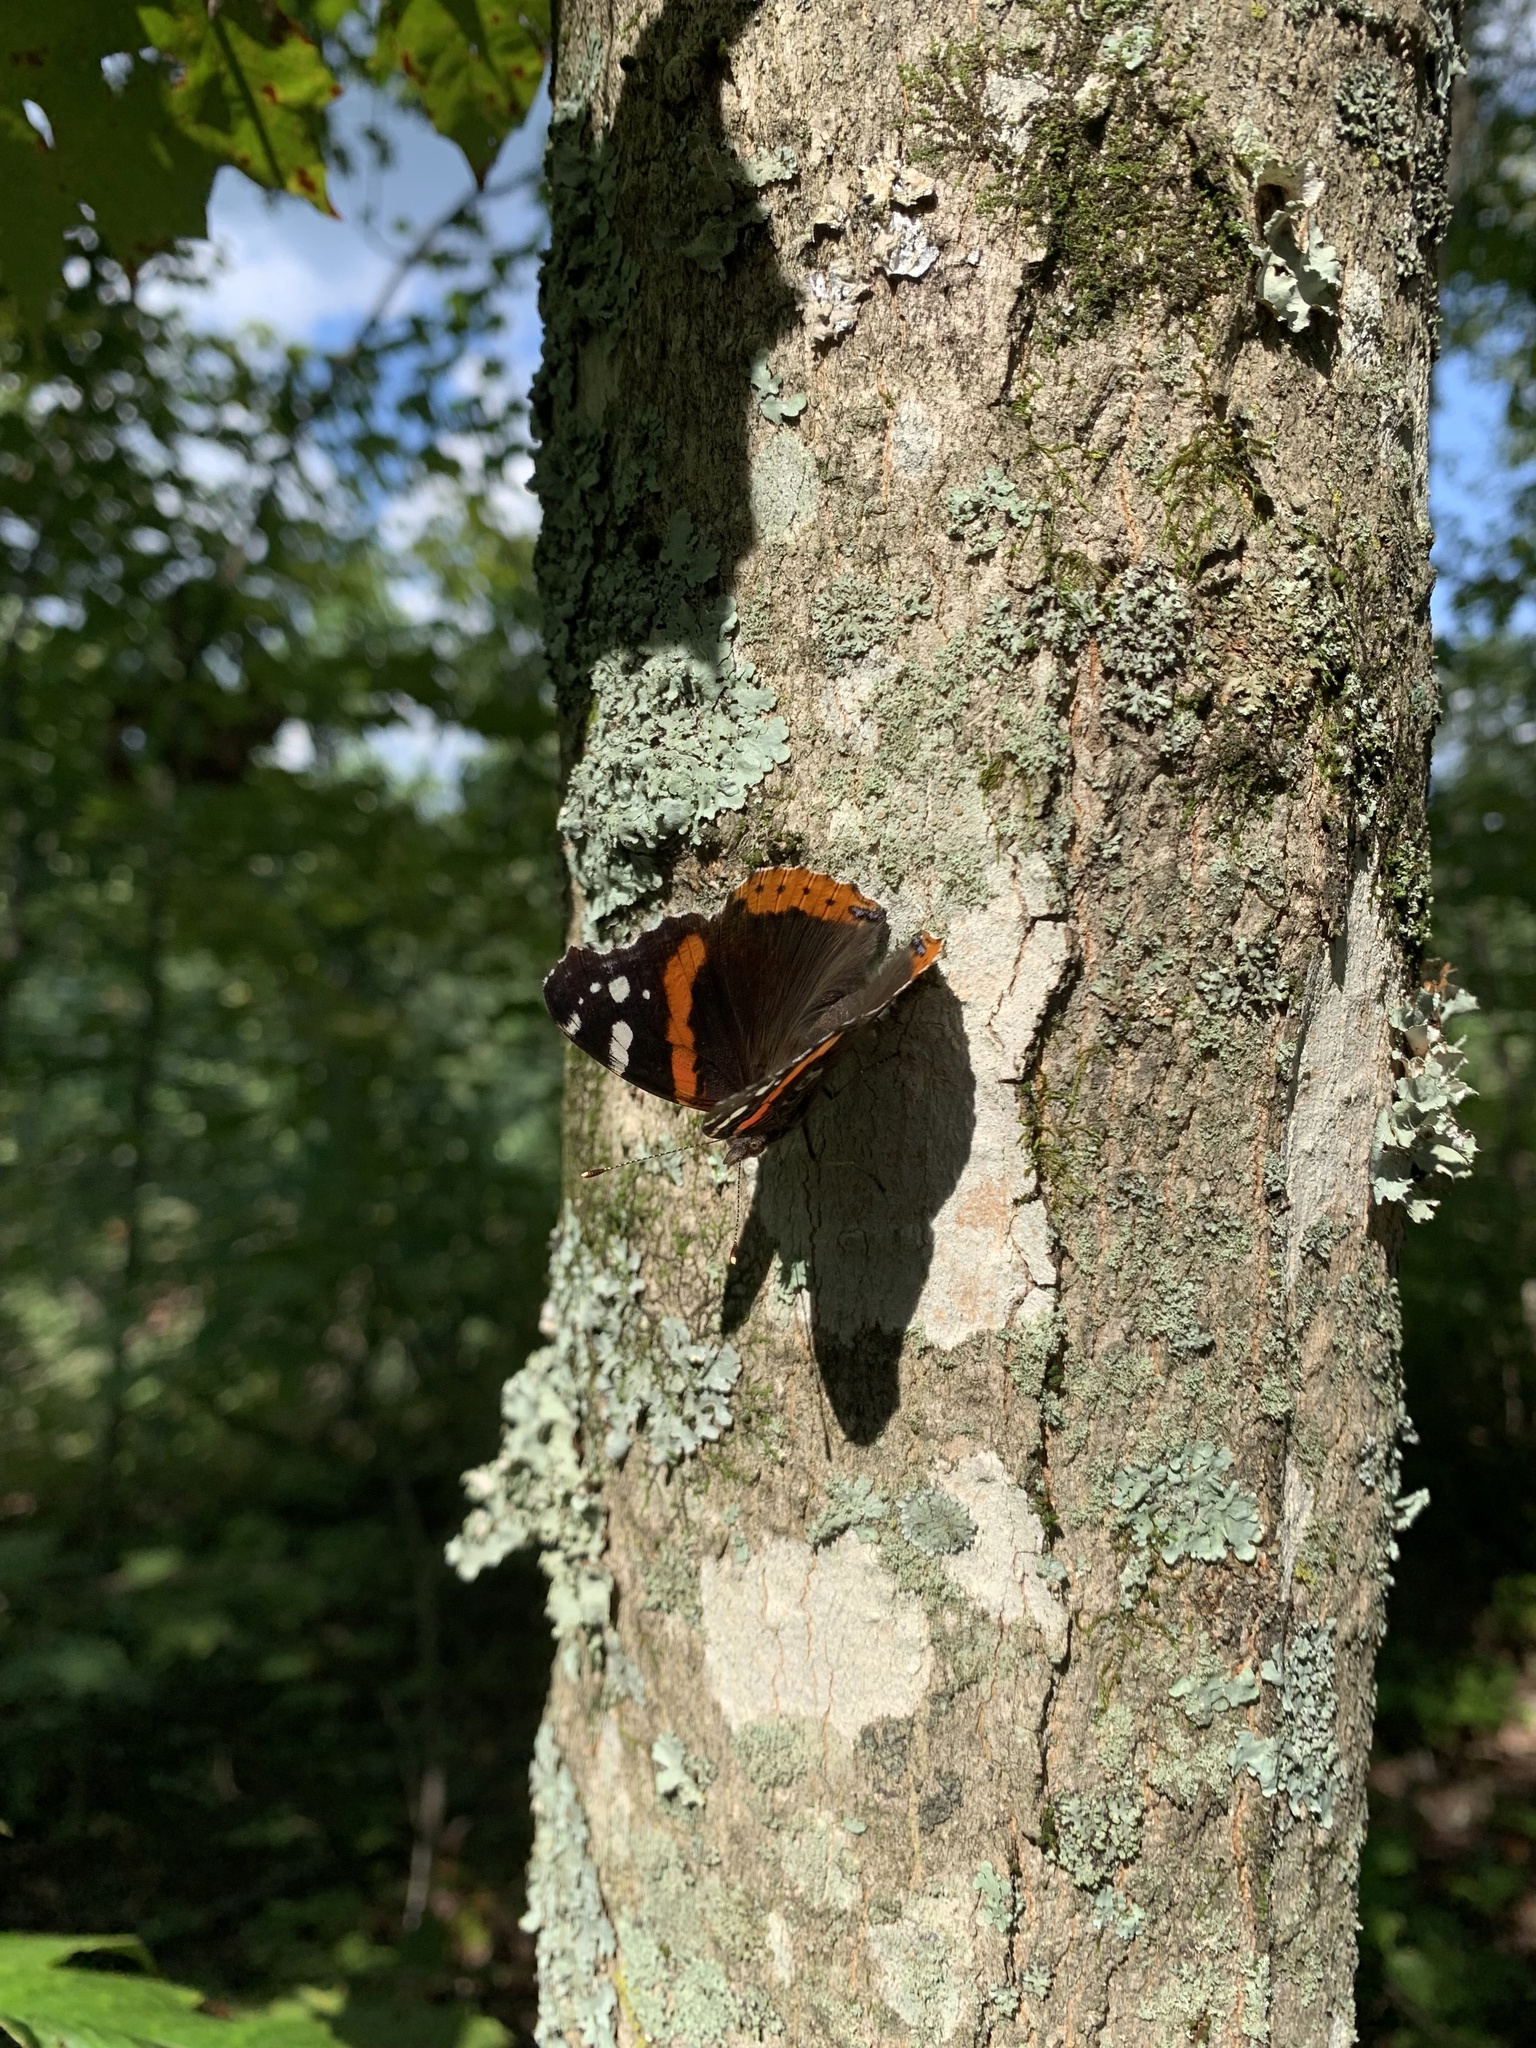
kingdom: Animalia
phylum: Arthropoda
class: Insecta
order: Lepidoptera
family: Nymphalidae
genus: Vanessa
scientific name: Vanessa atalanta
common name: Red admiral
